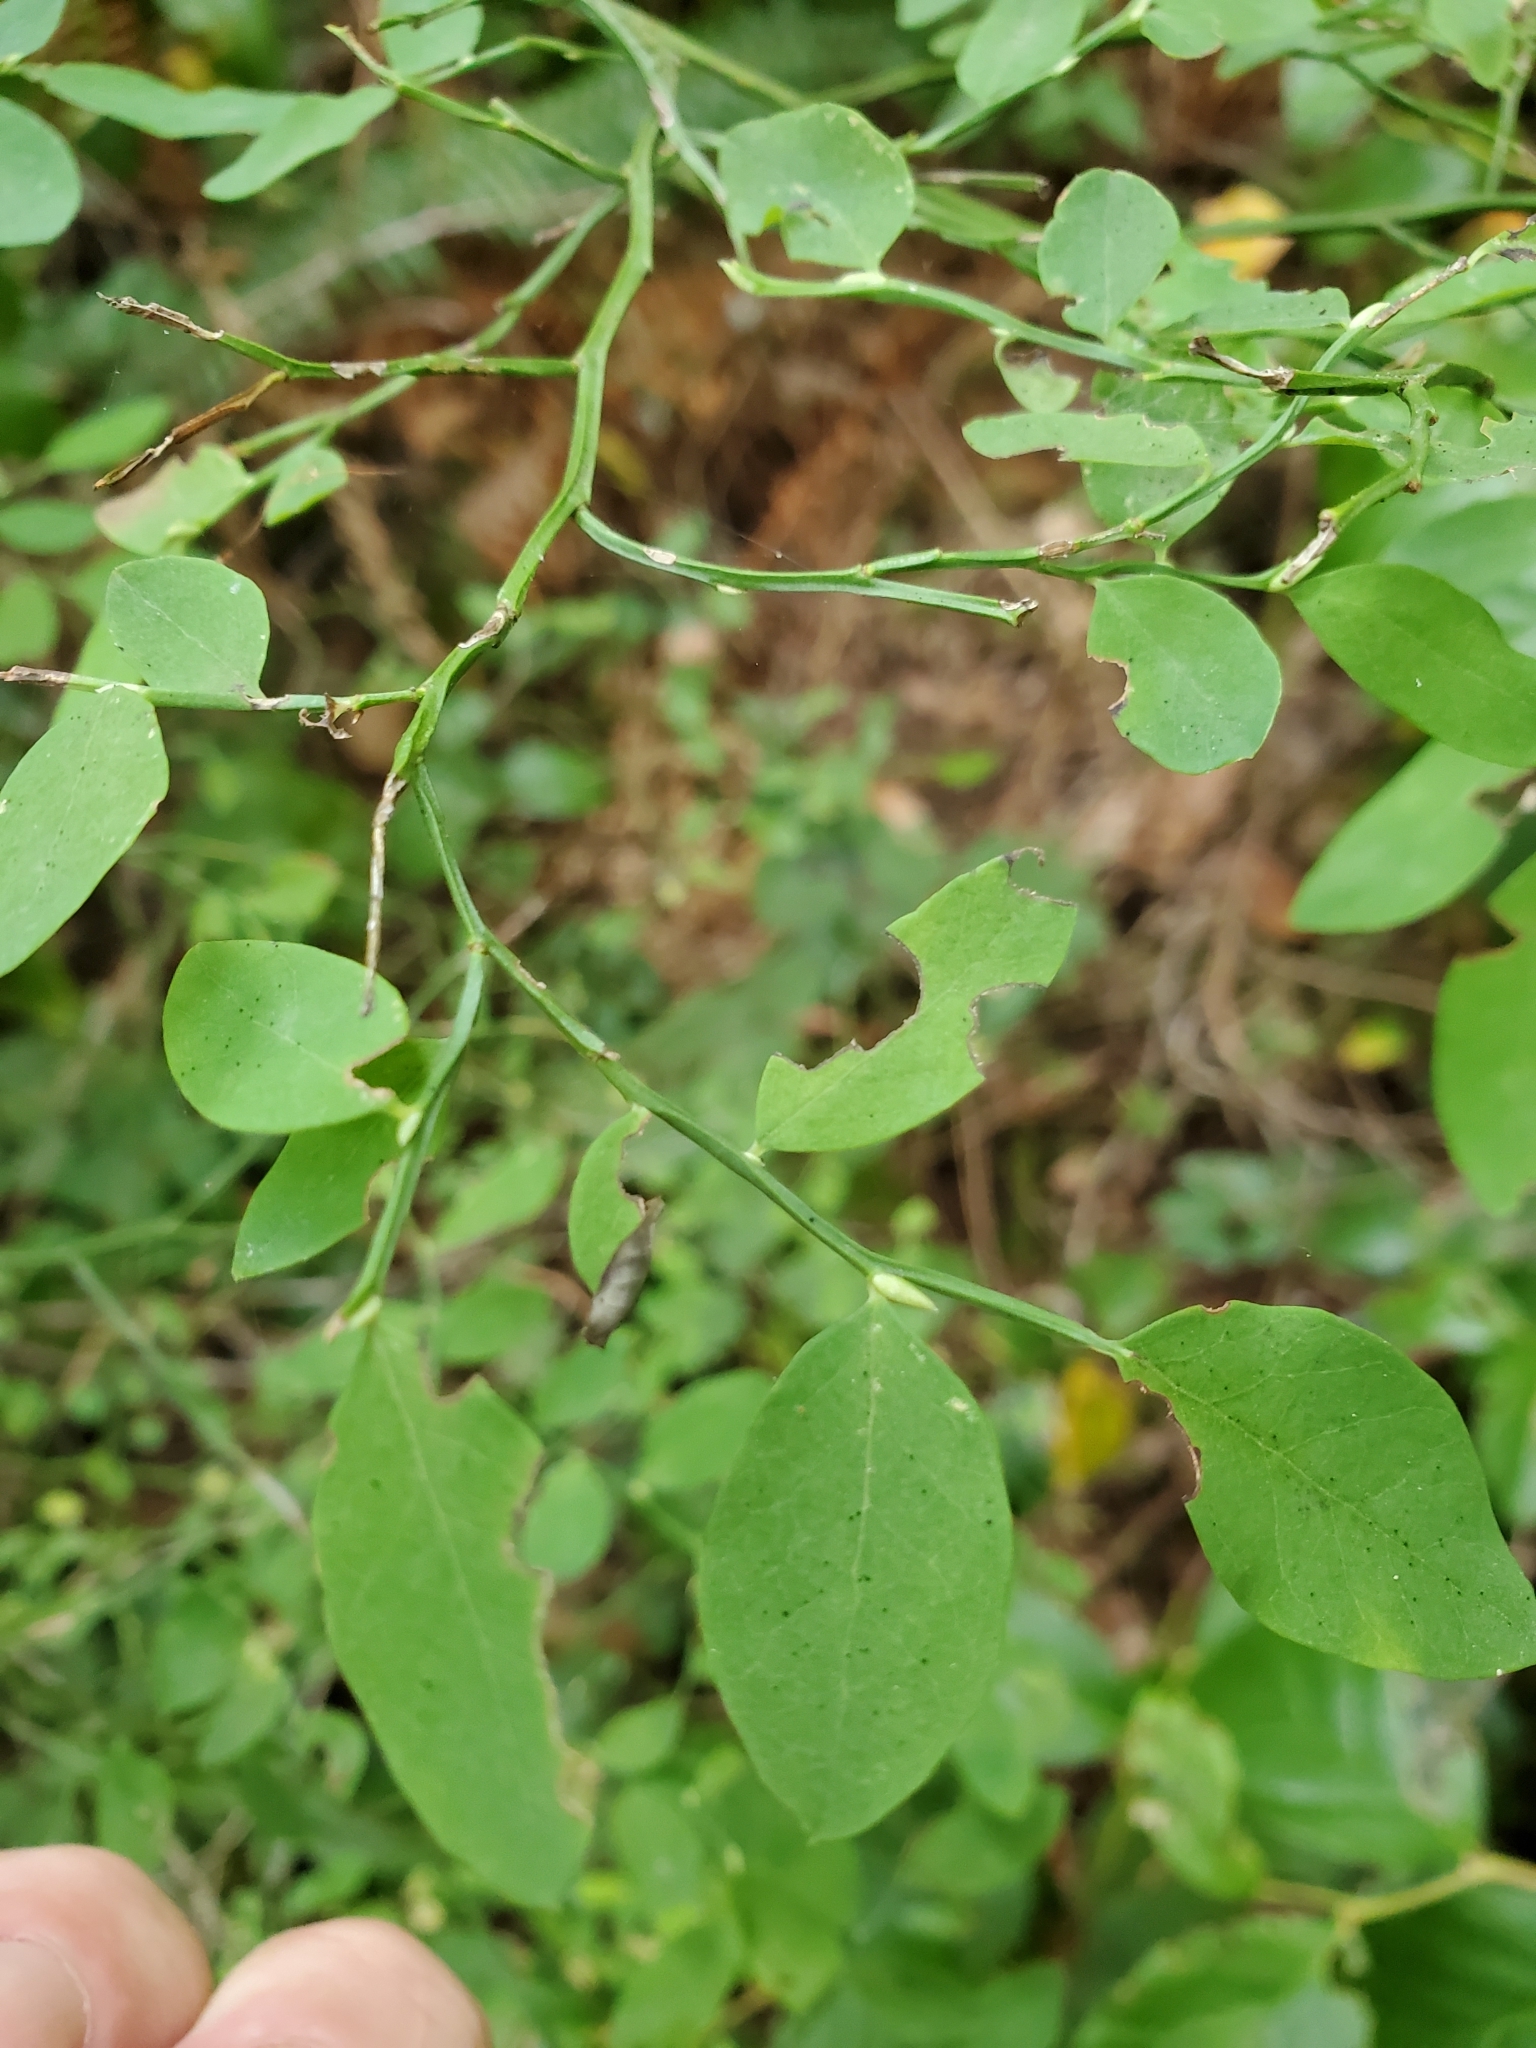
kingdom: Plantae
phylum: Tracheophyta
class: Magnoliopsida
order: Ericales
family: Ericaceae
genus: Vaccinium
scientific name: Vaccinium parvifolium
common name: Red-huckleberry
